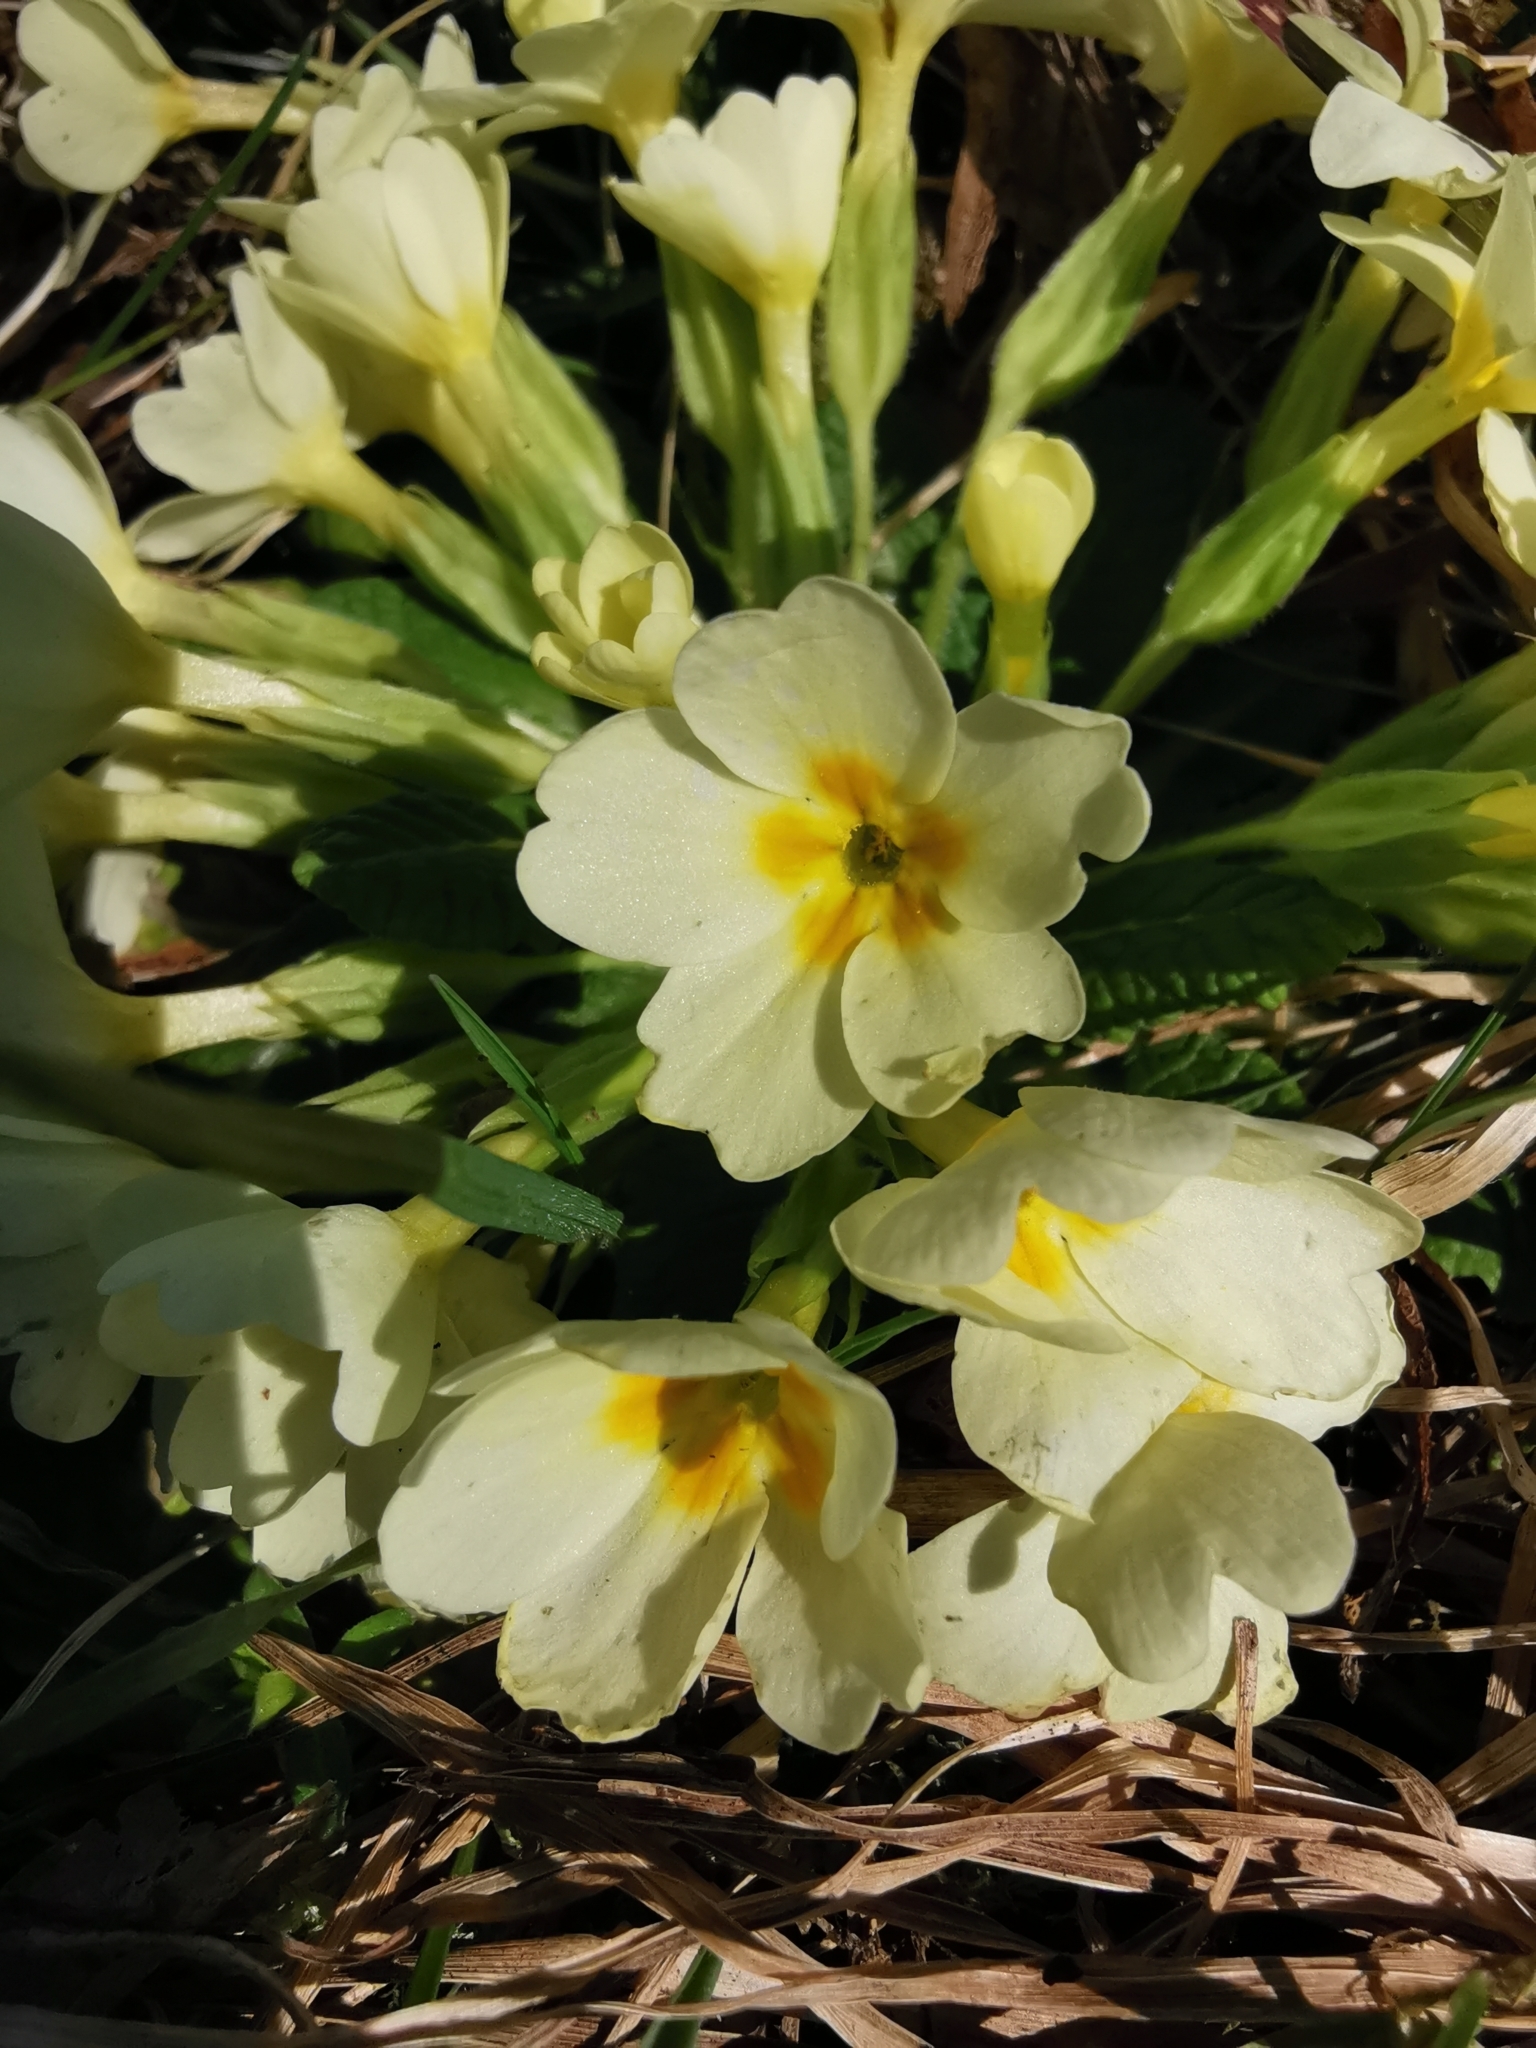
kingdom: Plantae
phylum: Tracheophyta
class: Magnoliopsida
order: Ericales
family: Primulaceae
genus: Primula
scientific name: Primula vulgaris
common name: Primrose
